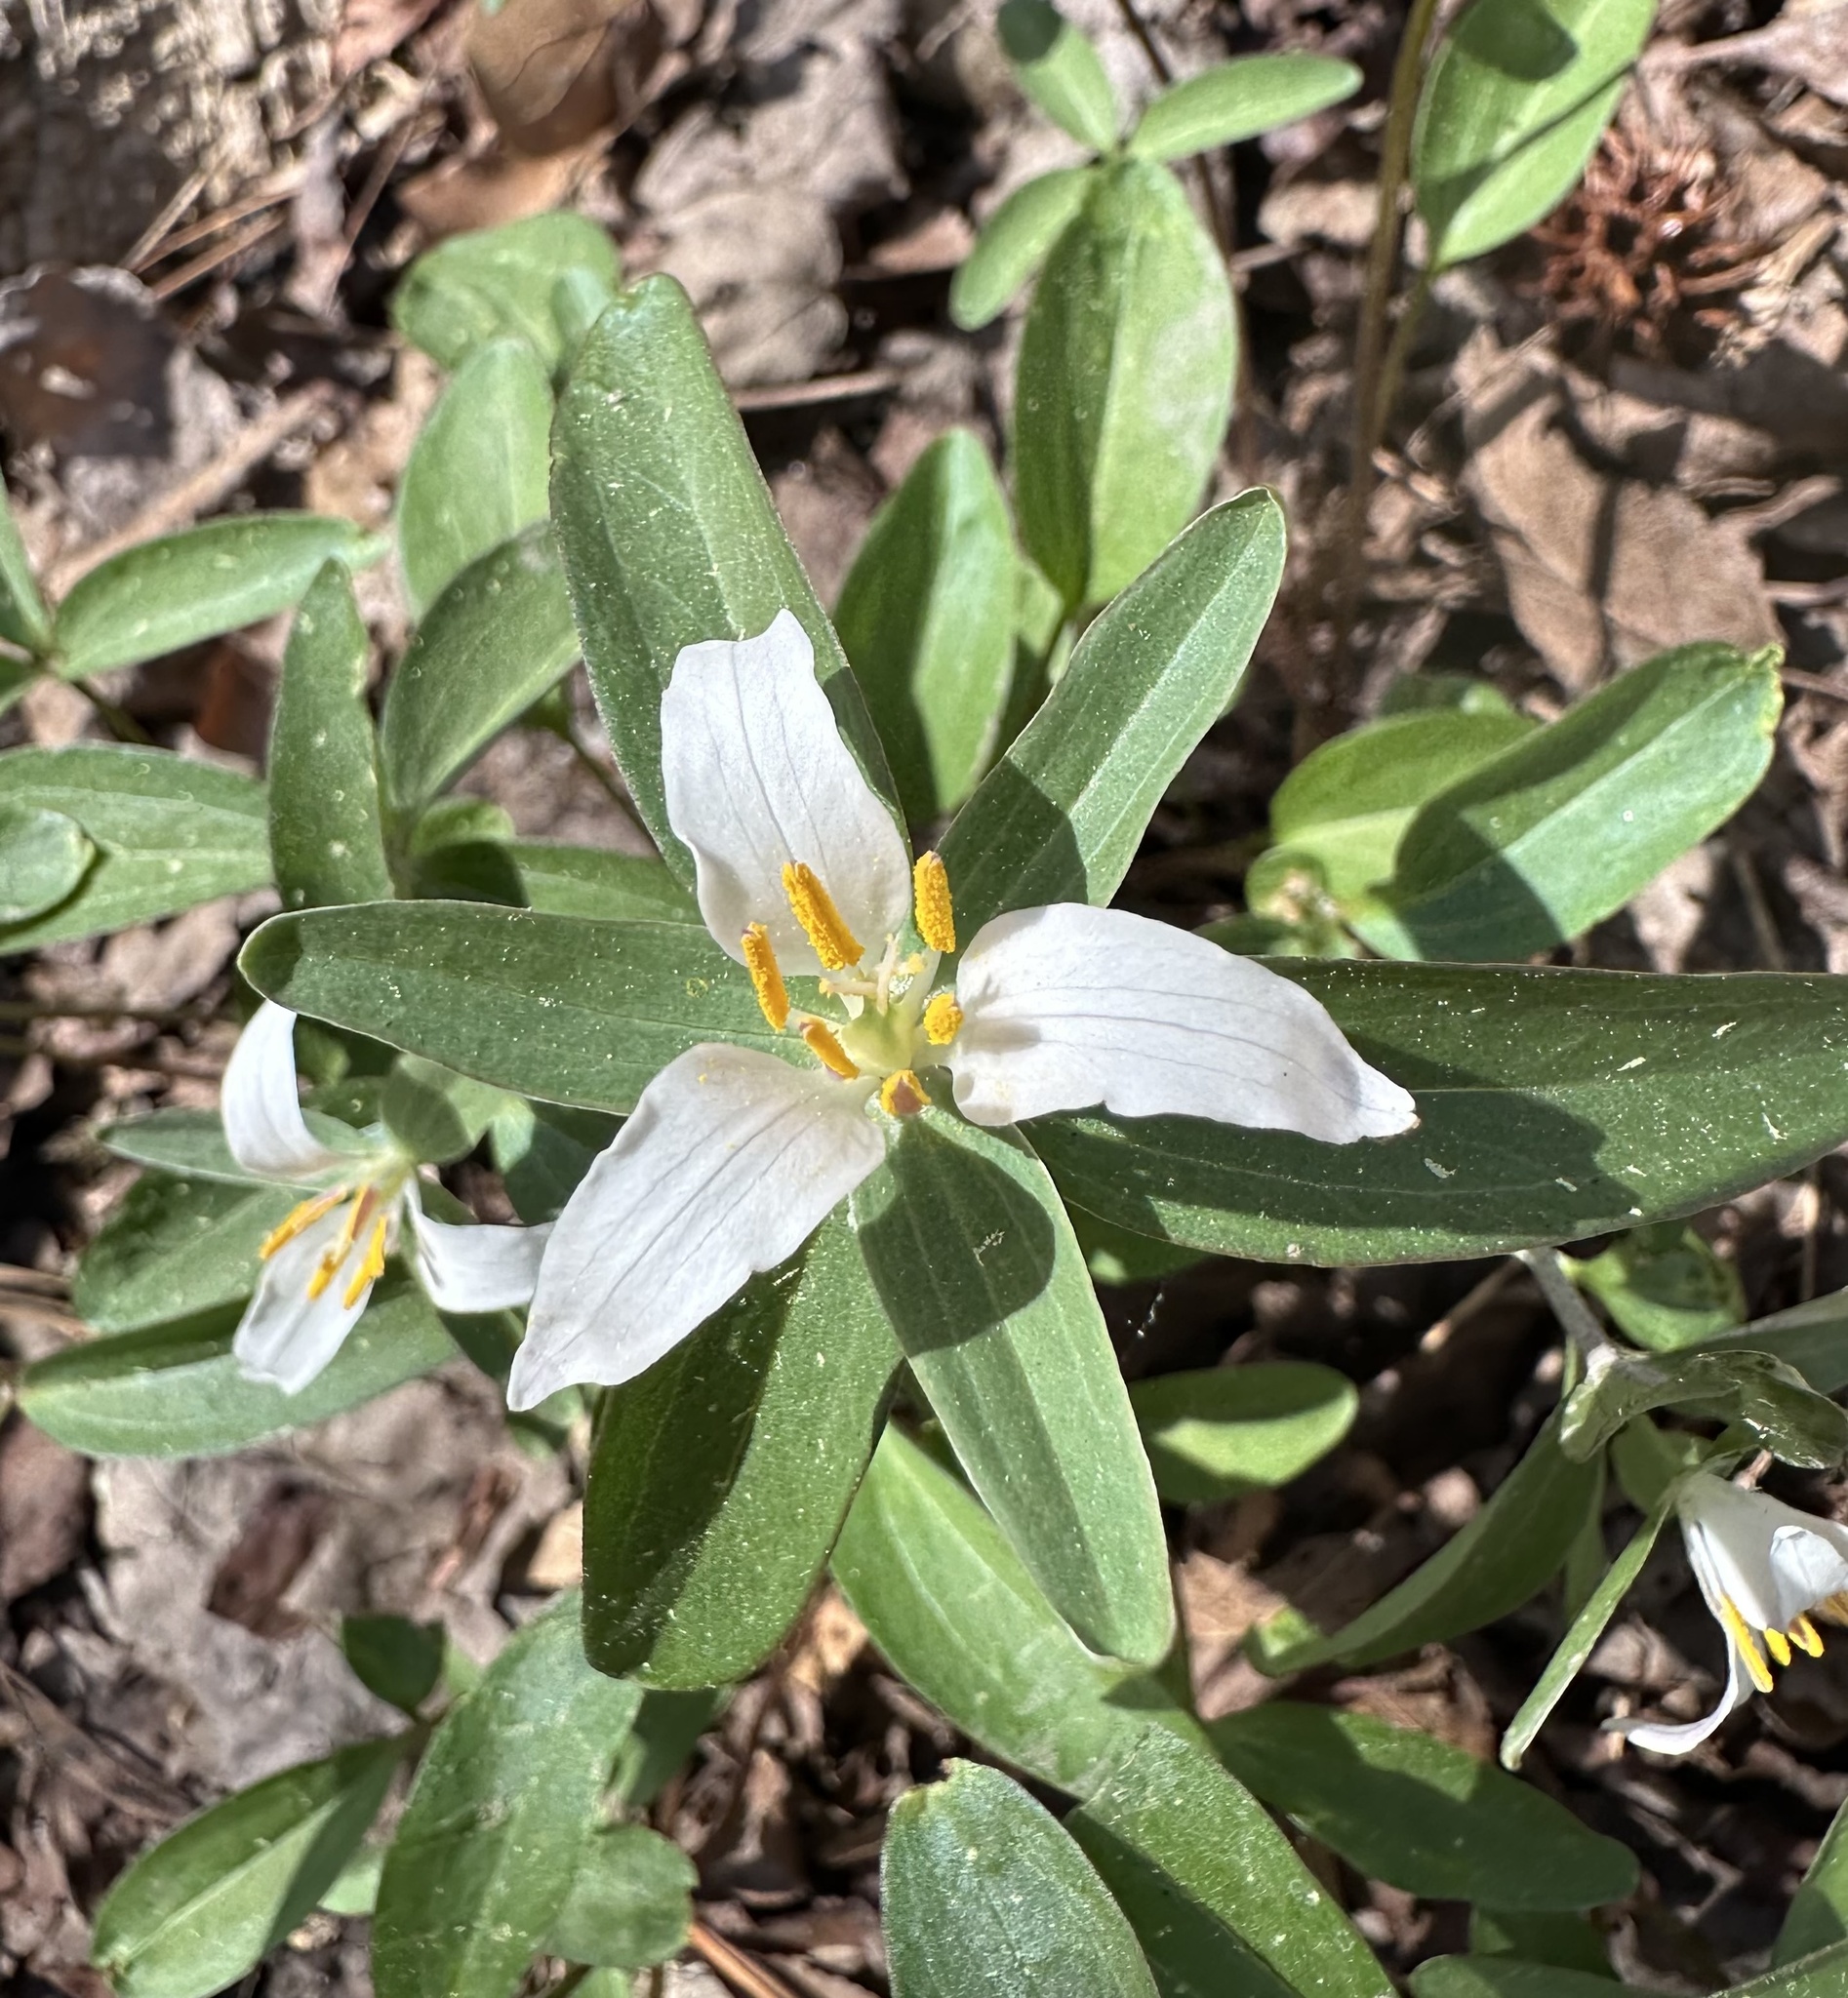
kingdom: Plantae
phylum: Tracheophyta
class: Liliopsida
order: Liliales
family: Melanthiaceae
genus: Trillium
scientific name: Trillium pusillum
